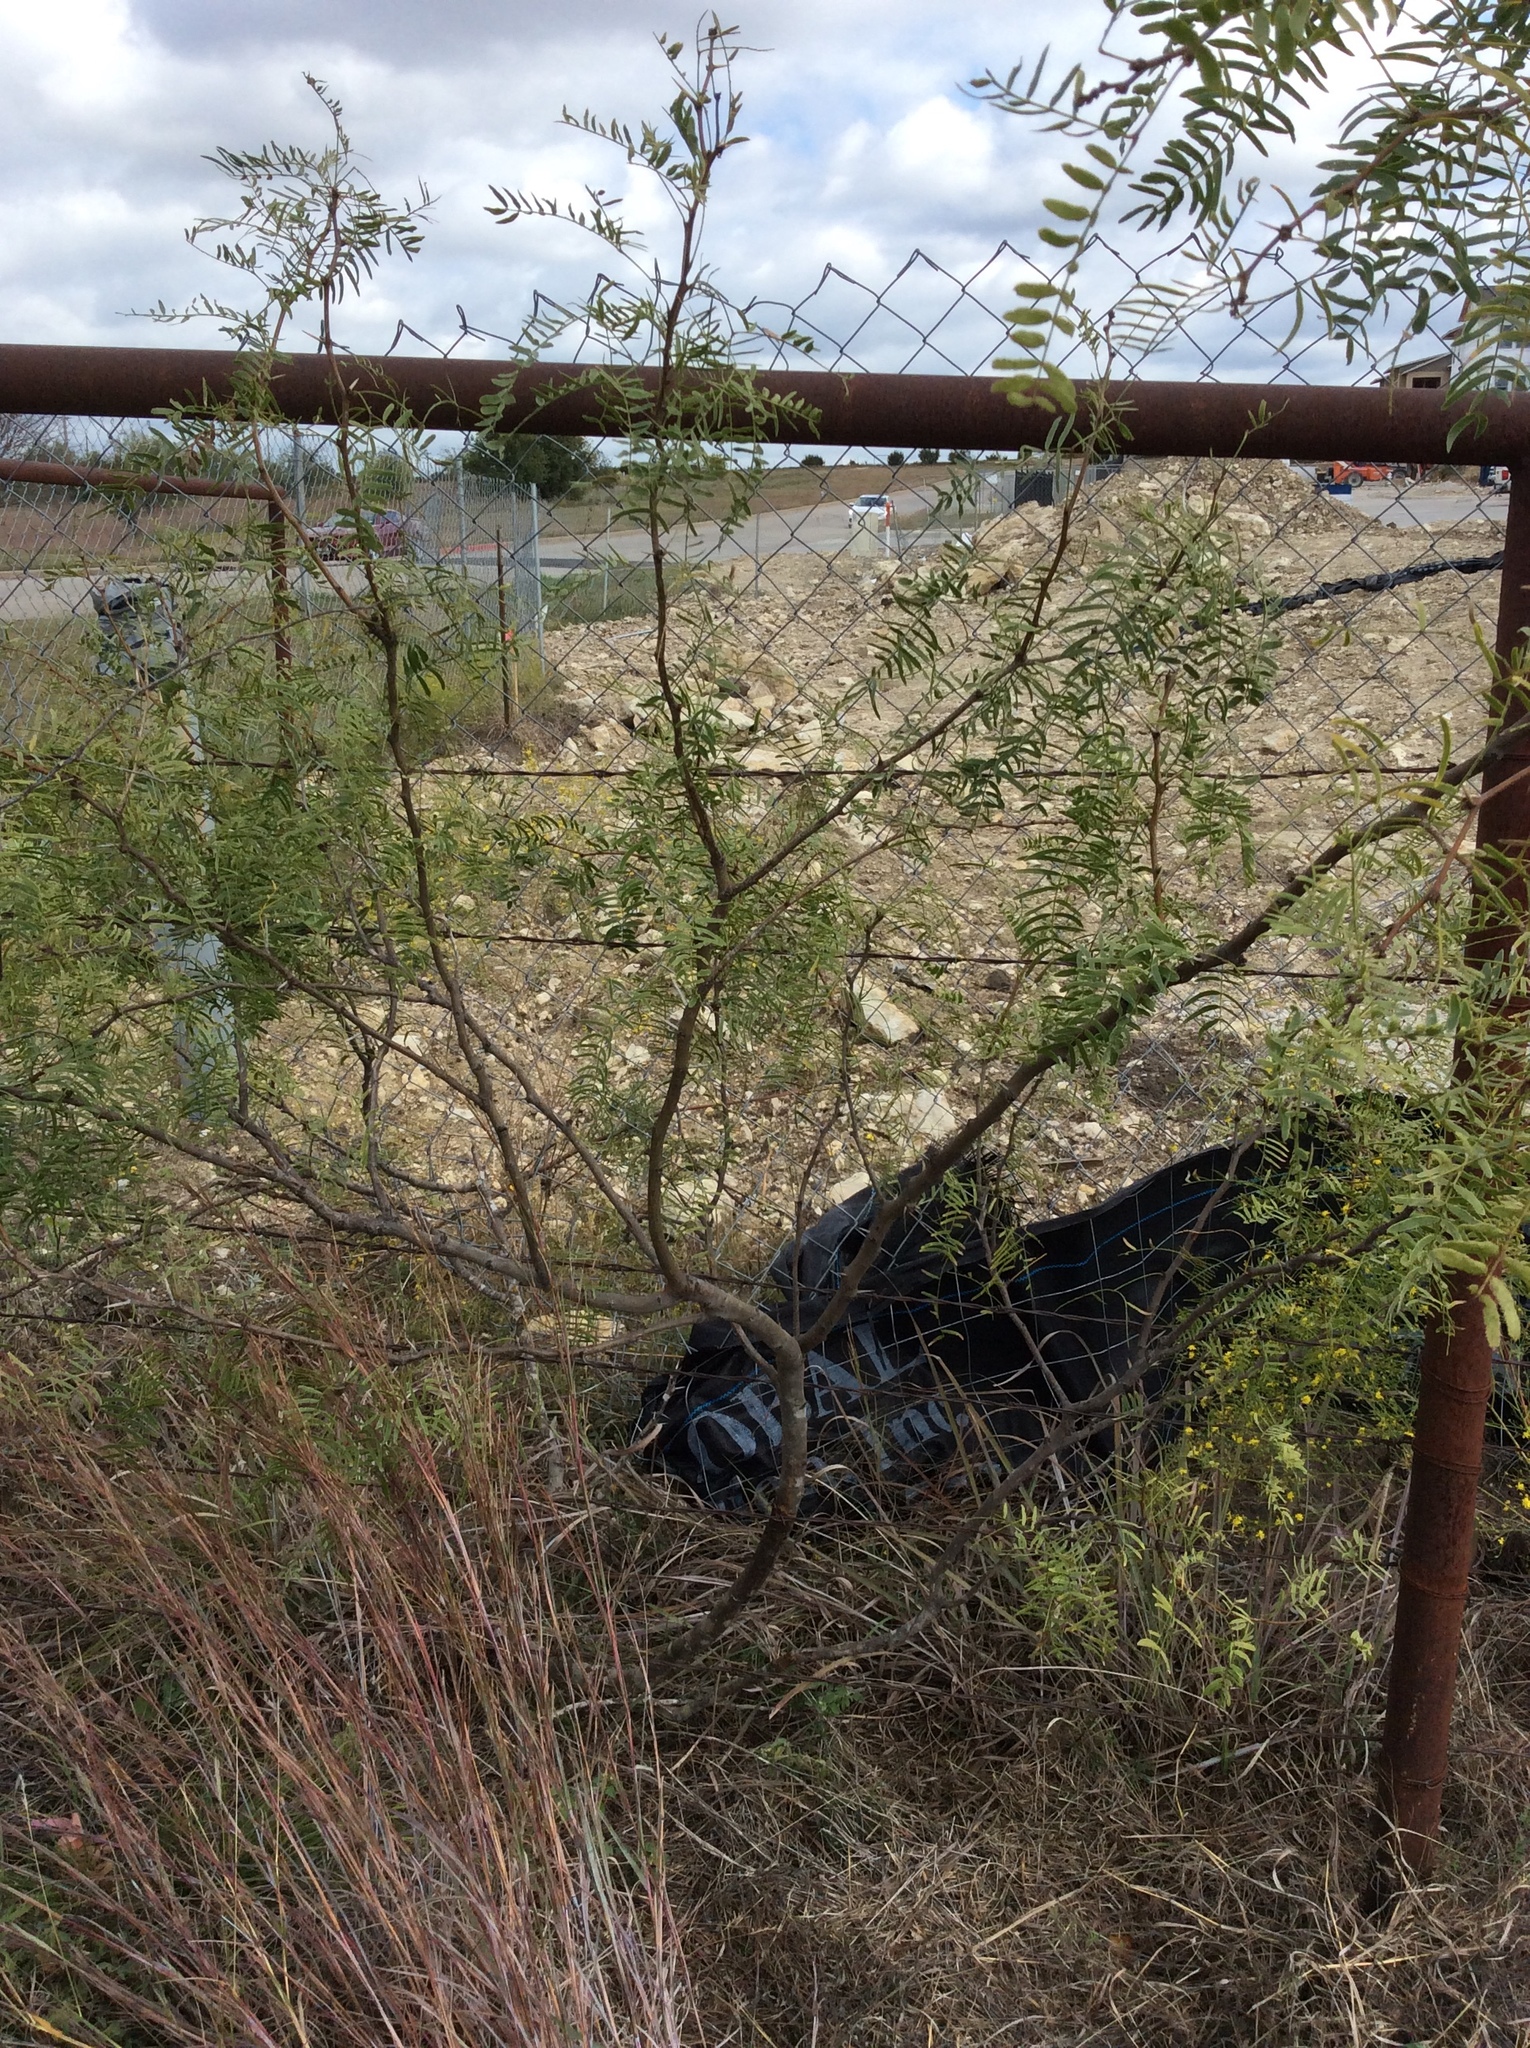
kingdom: Plantae
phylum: Tracheophyta
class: Magnoliopsida
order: Fabales
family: Fabaceae
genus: Prosopis
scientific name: Prosopis glandulosa
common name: Honey mesquite
